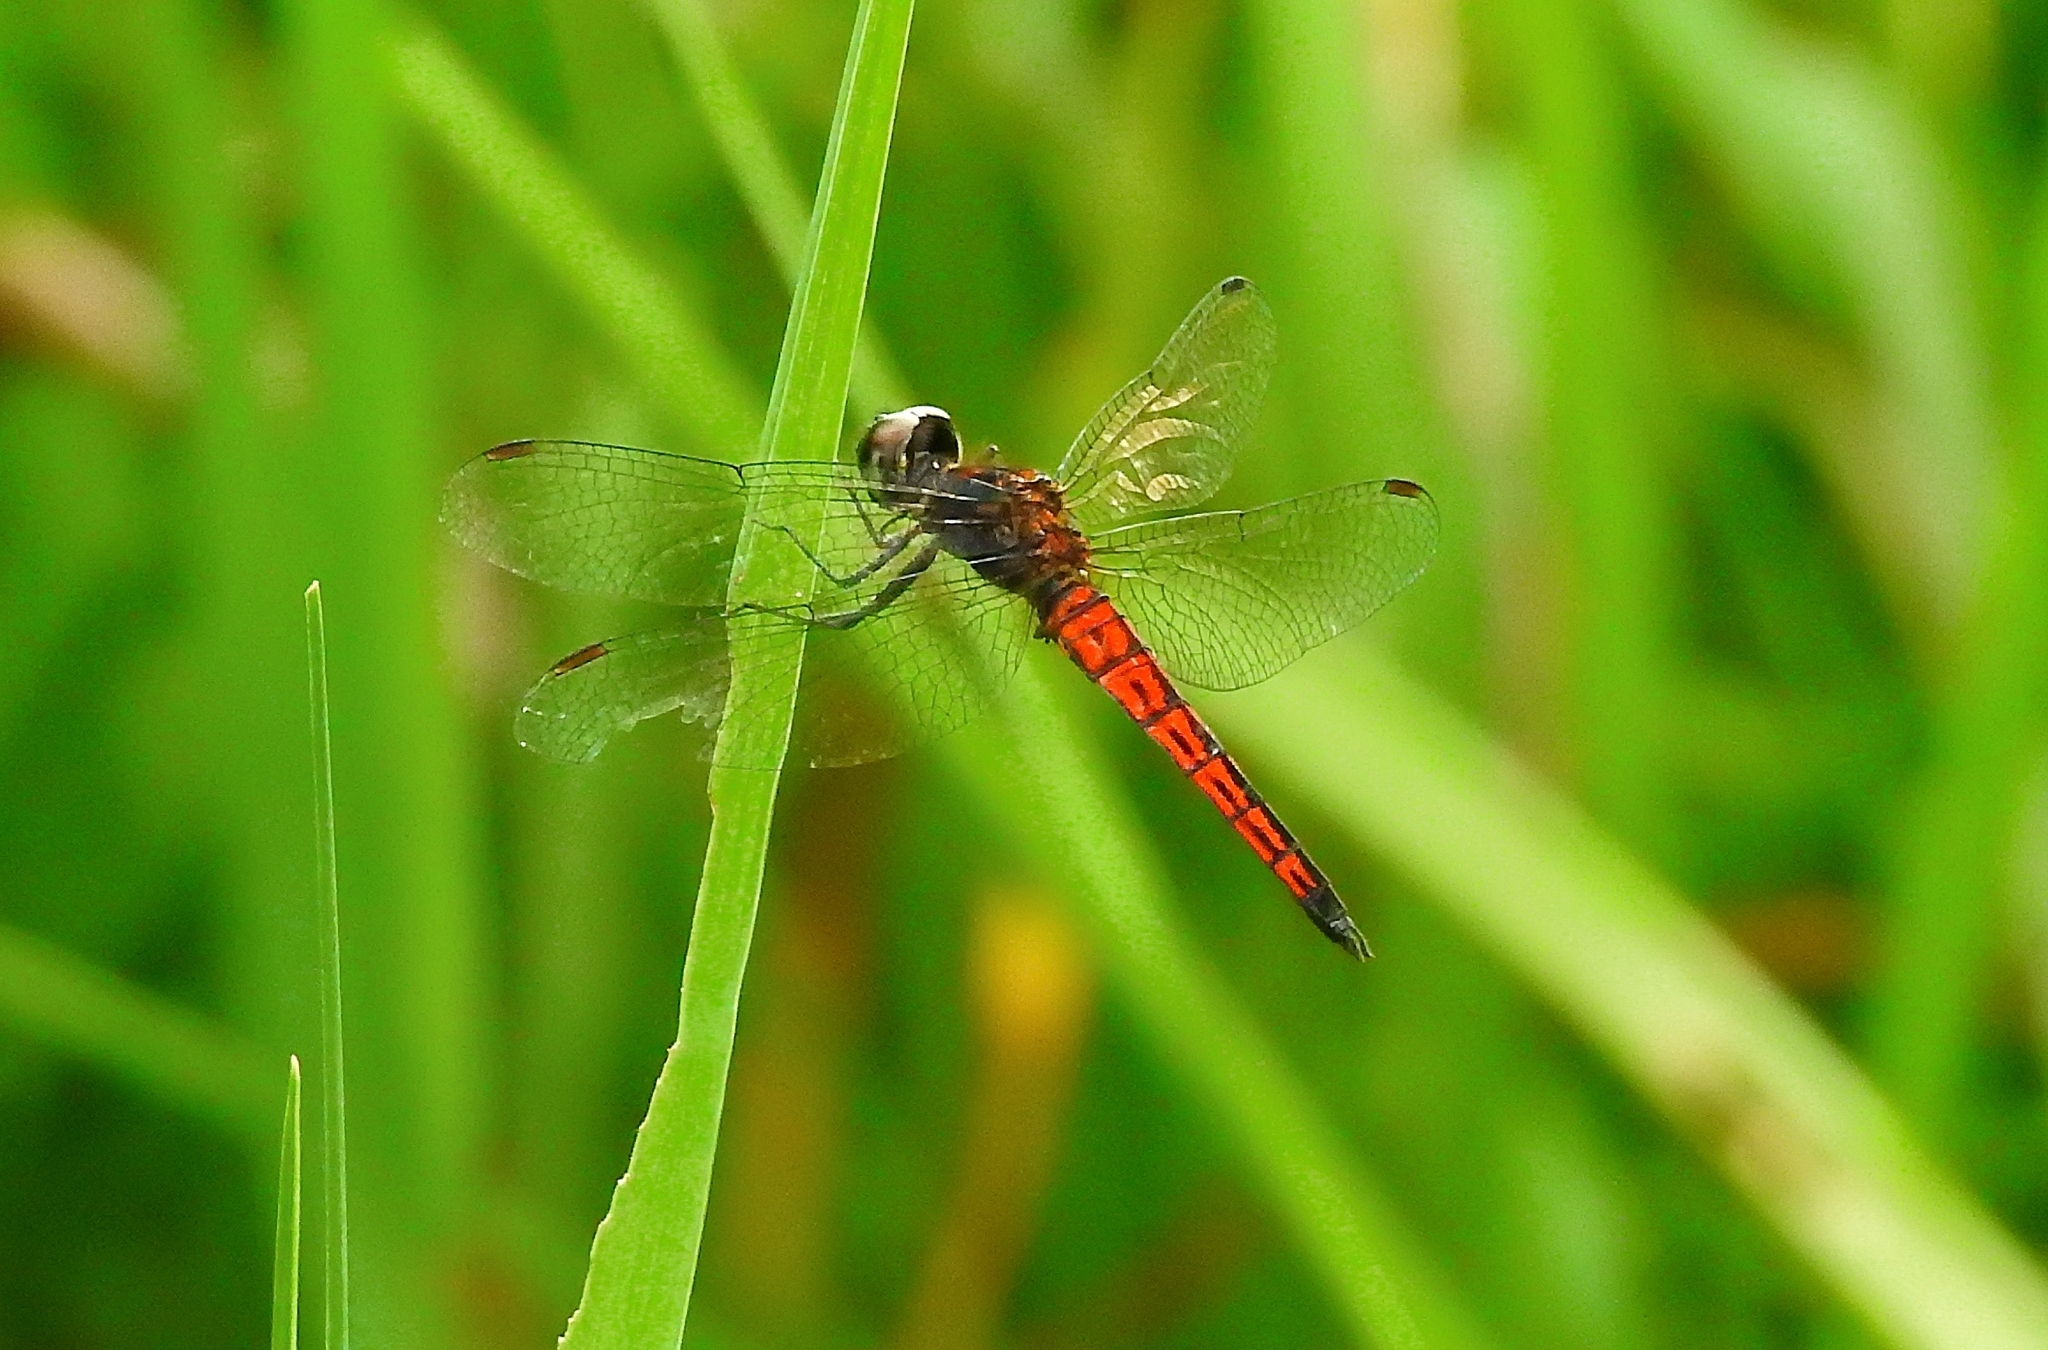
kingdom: Animalia
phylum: Arthropoda
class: Insecta
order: Odonata
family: Libellulidae
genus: Lyriothemis
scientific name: Lyriothemis acigastra
